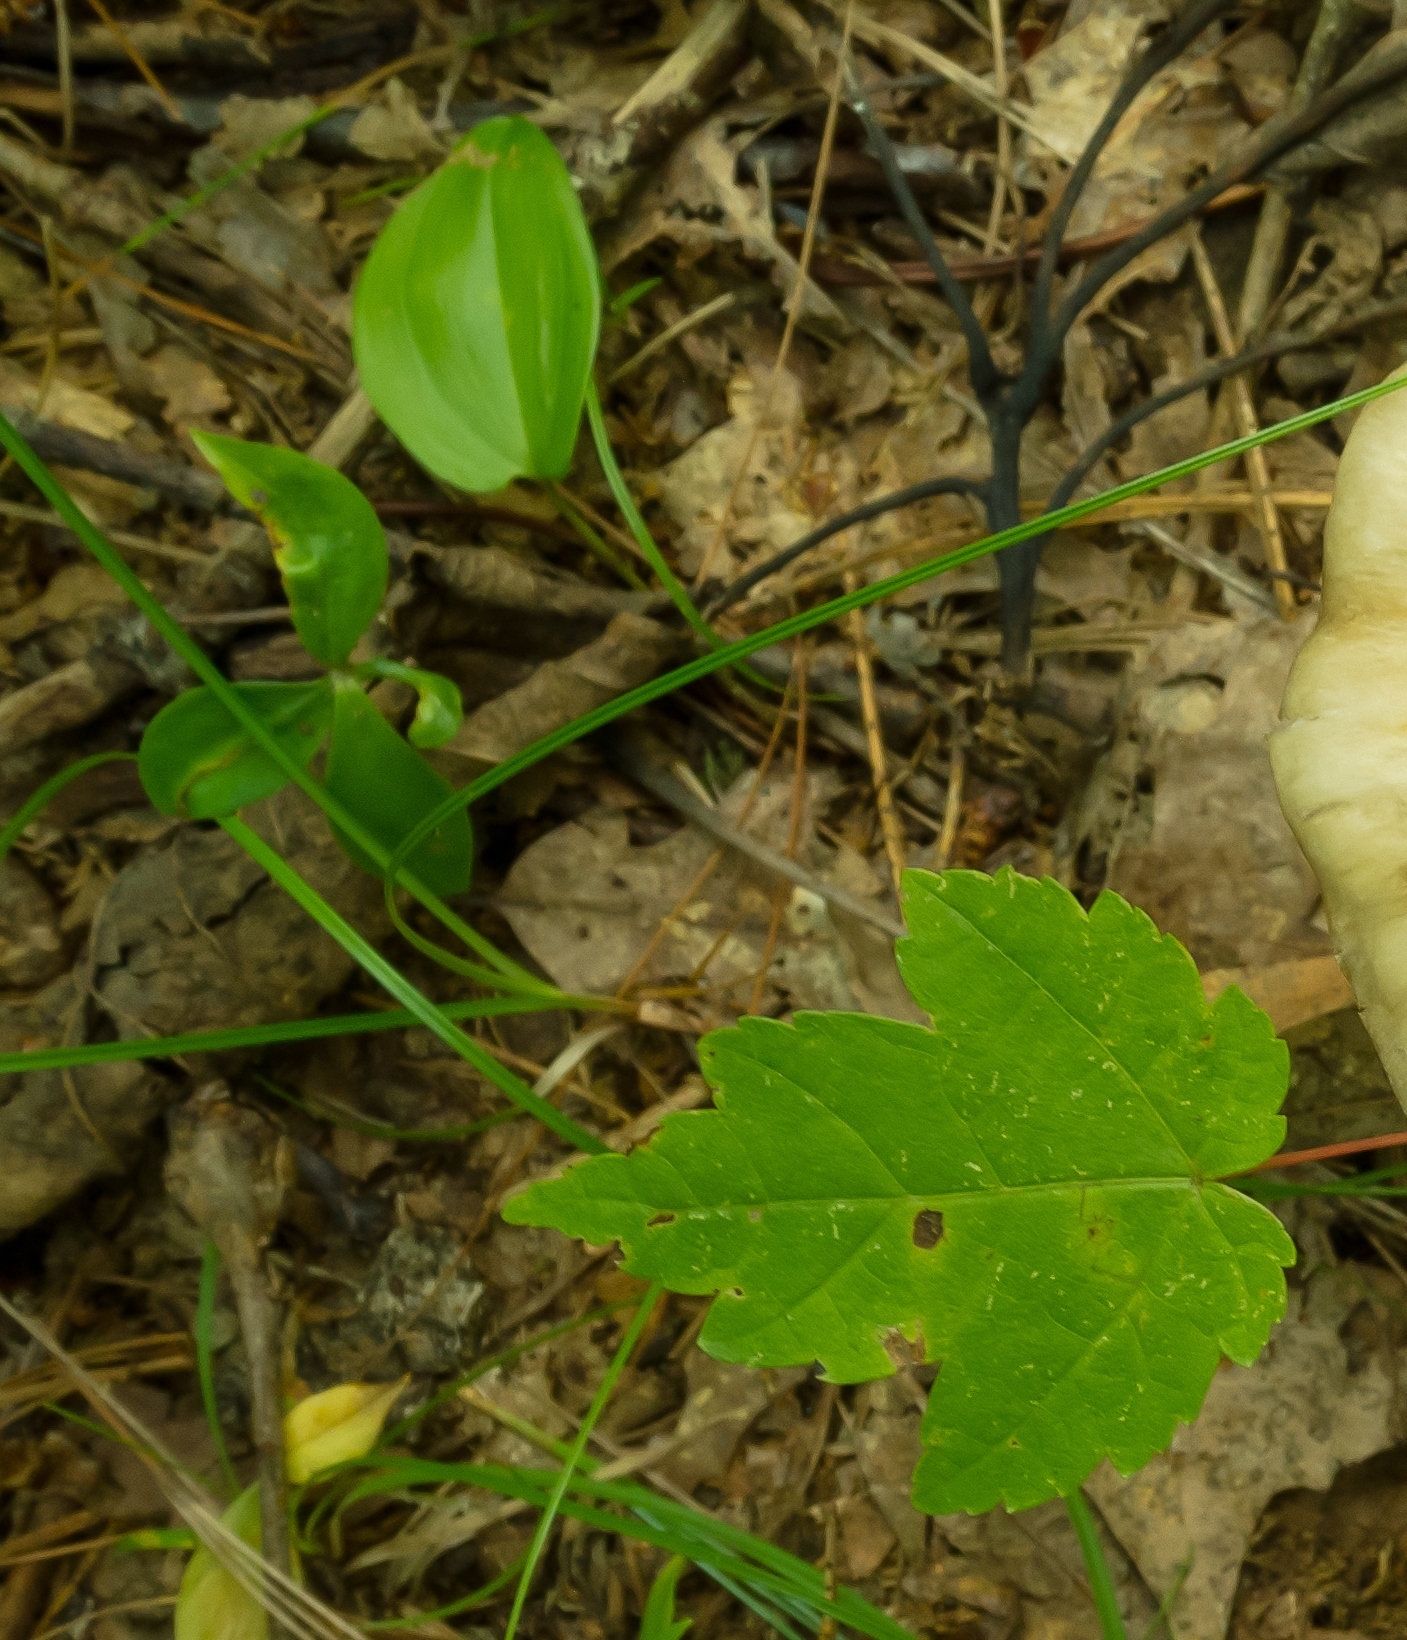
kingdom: Plantae
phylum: Tracheophyta
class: Liliopsida
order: Asparagales
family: Asparagaceae
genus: Maianthemum
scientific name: Maianthemum canadense
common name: False lily-of-the-valley
